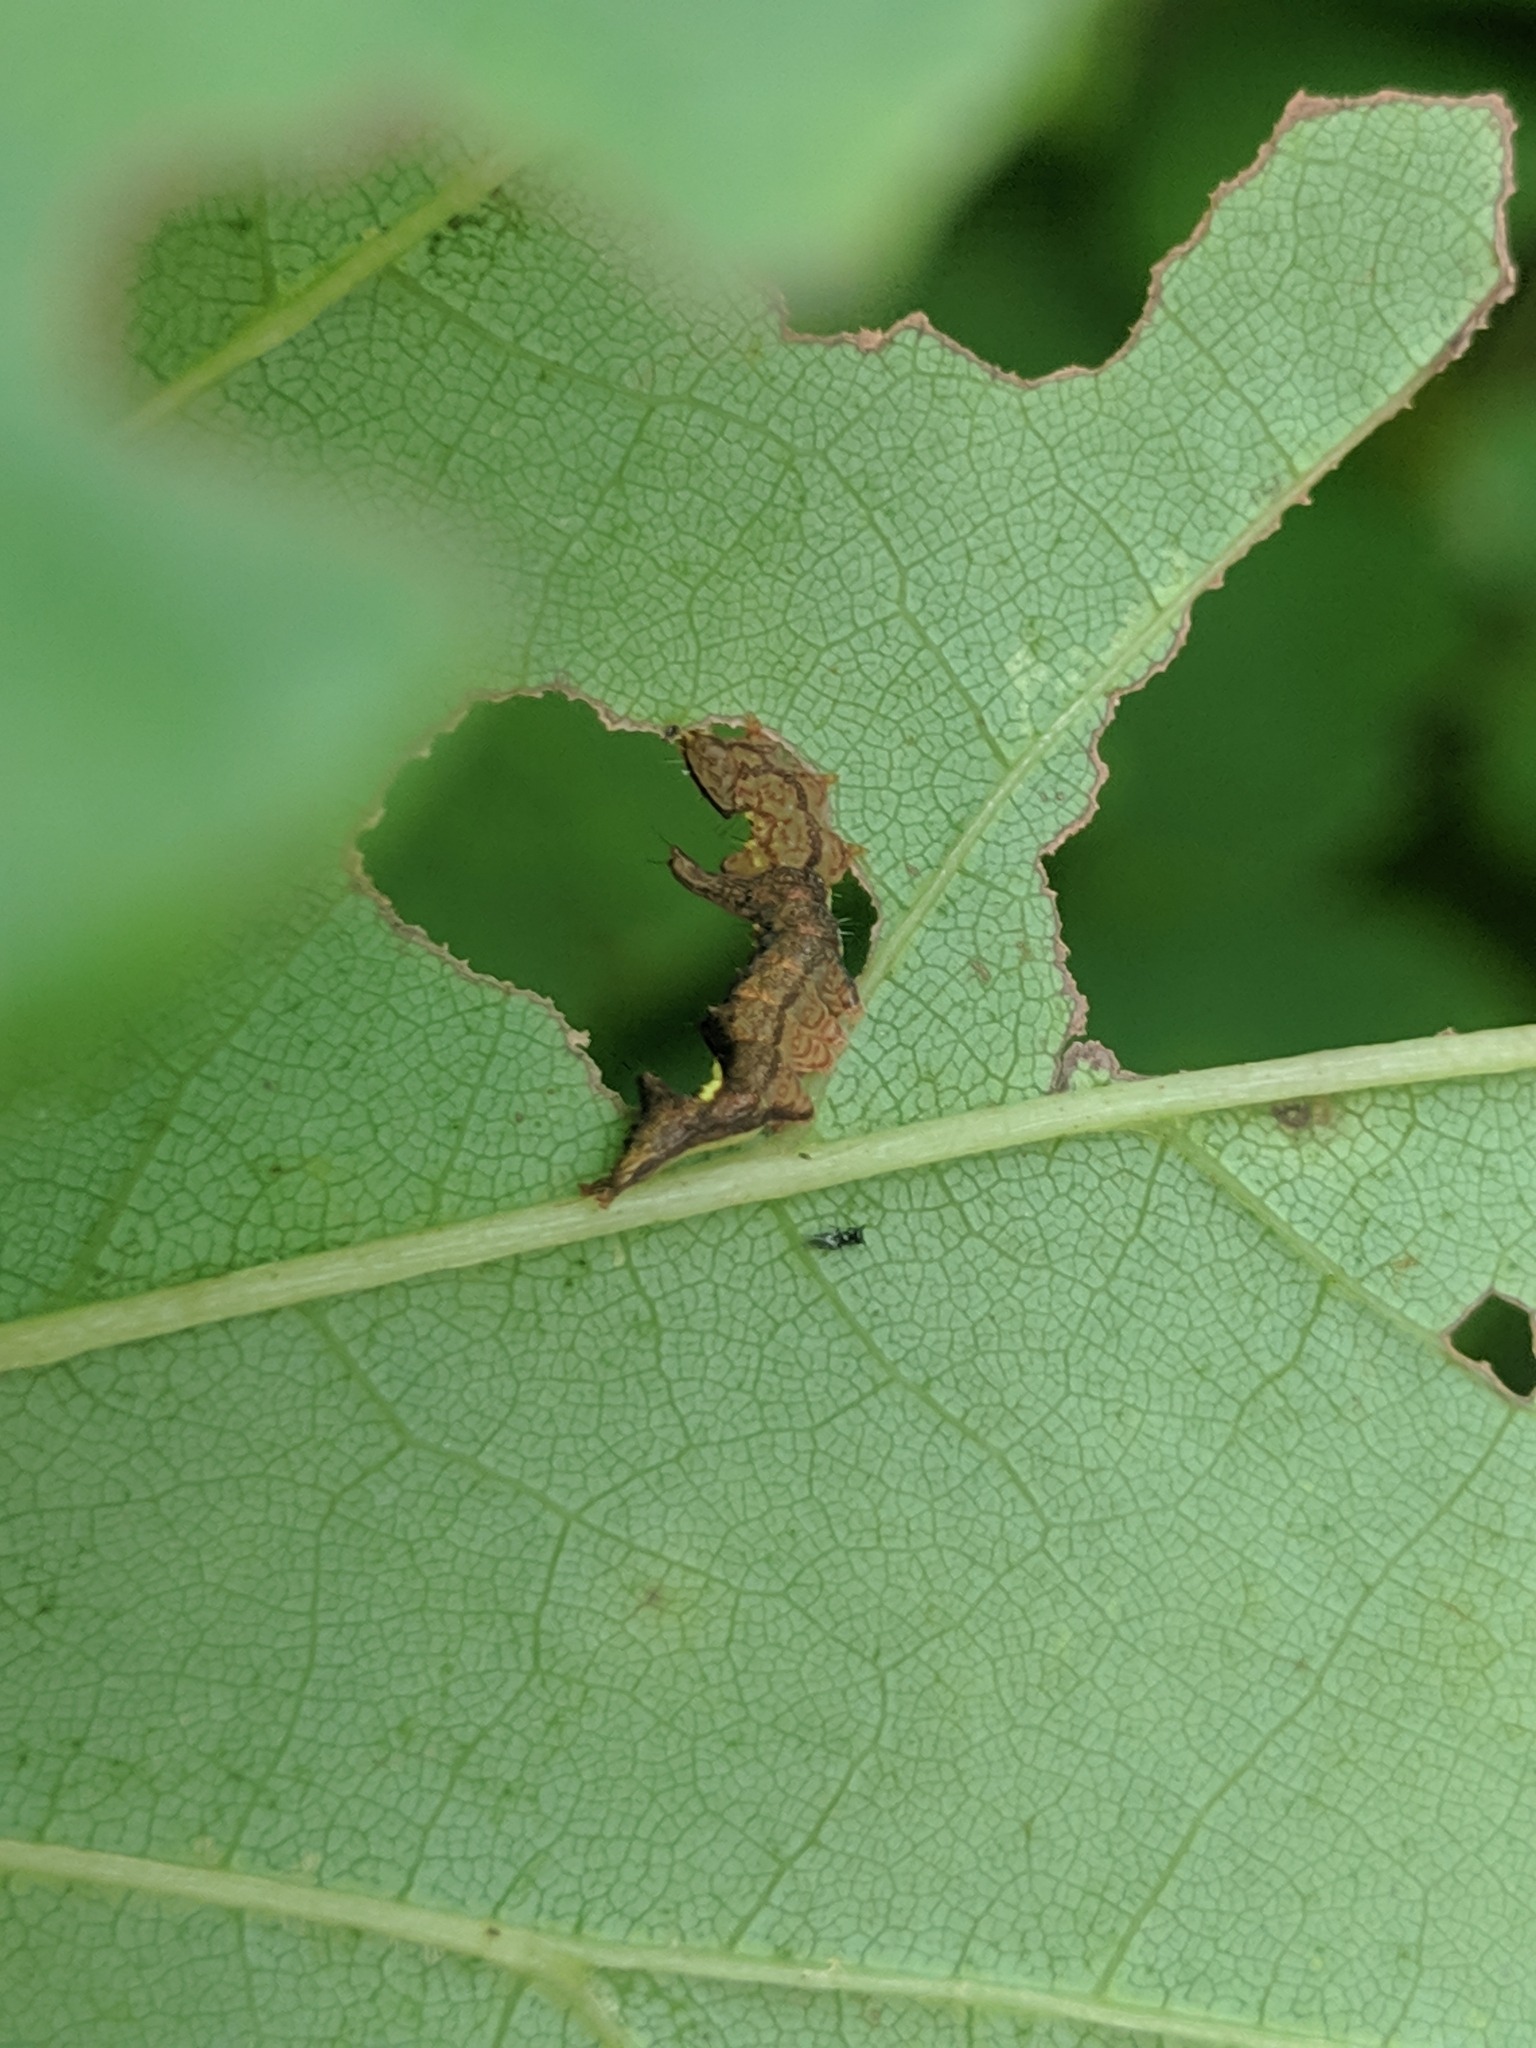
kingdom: Animalia
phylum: Arthropoda
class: Insecta
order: Lepidoptera
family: Notodontidae
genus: Schizura
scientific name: Schizura
